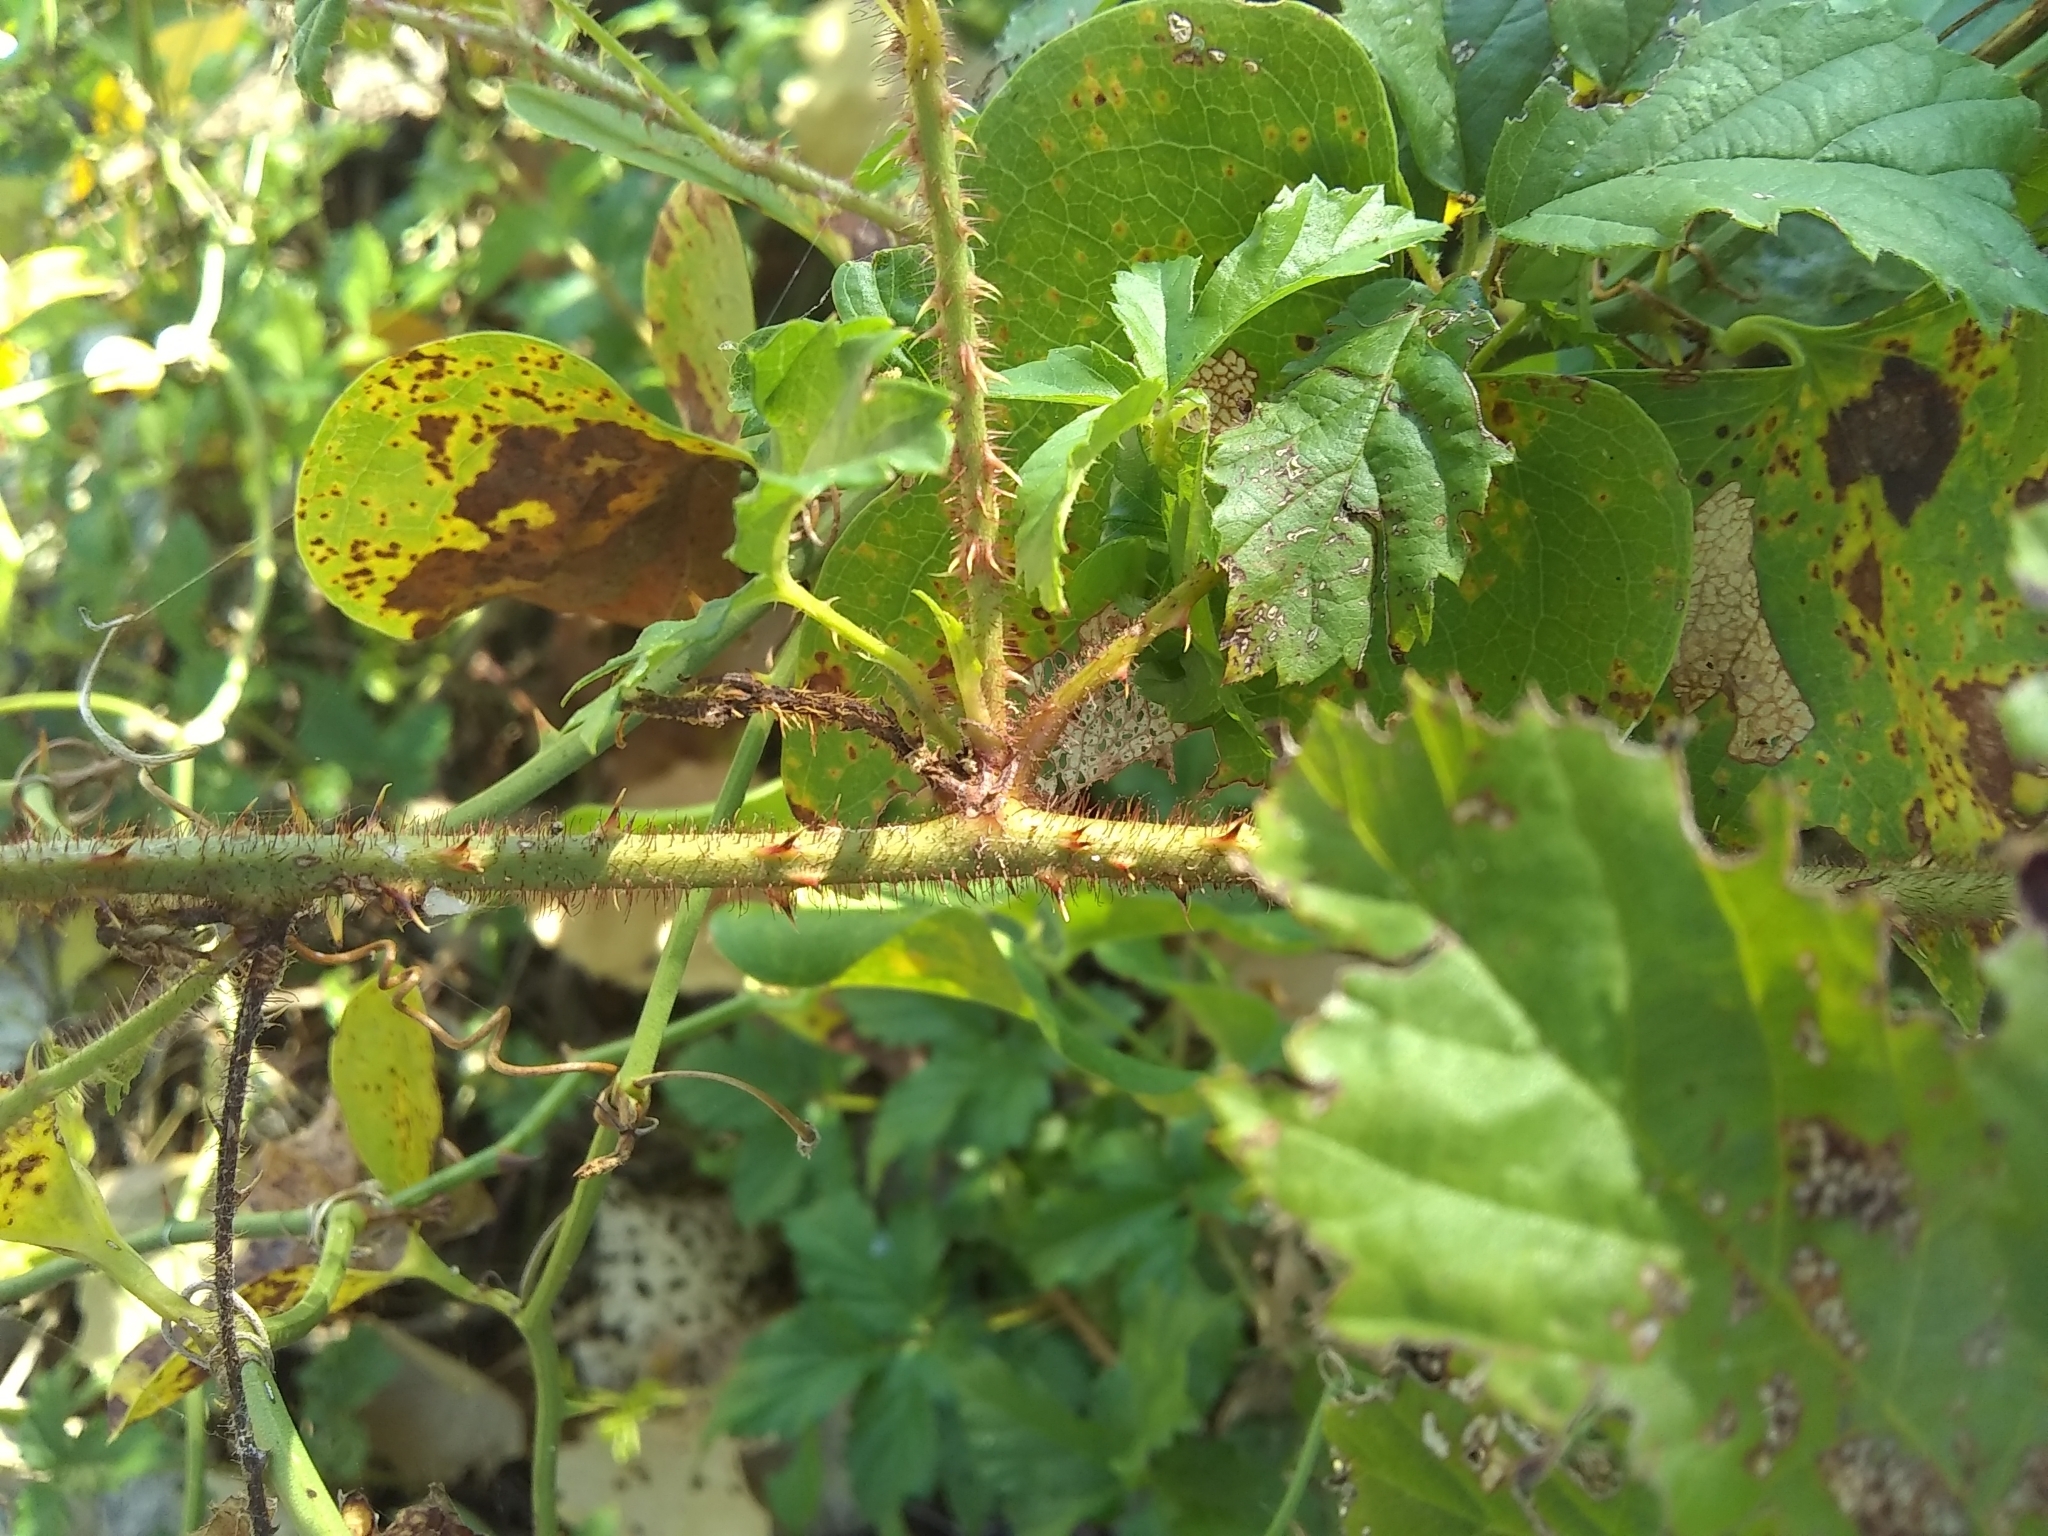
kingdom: Plantae
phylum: Tracheophyta
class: Magnoliopsida
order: Rosales
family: Rosaceae
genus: Rubus
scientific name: Rubus trivialis
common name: Southern dewberry
